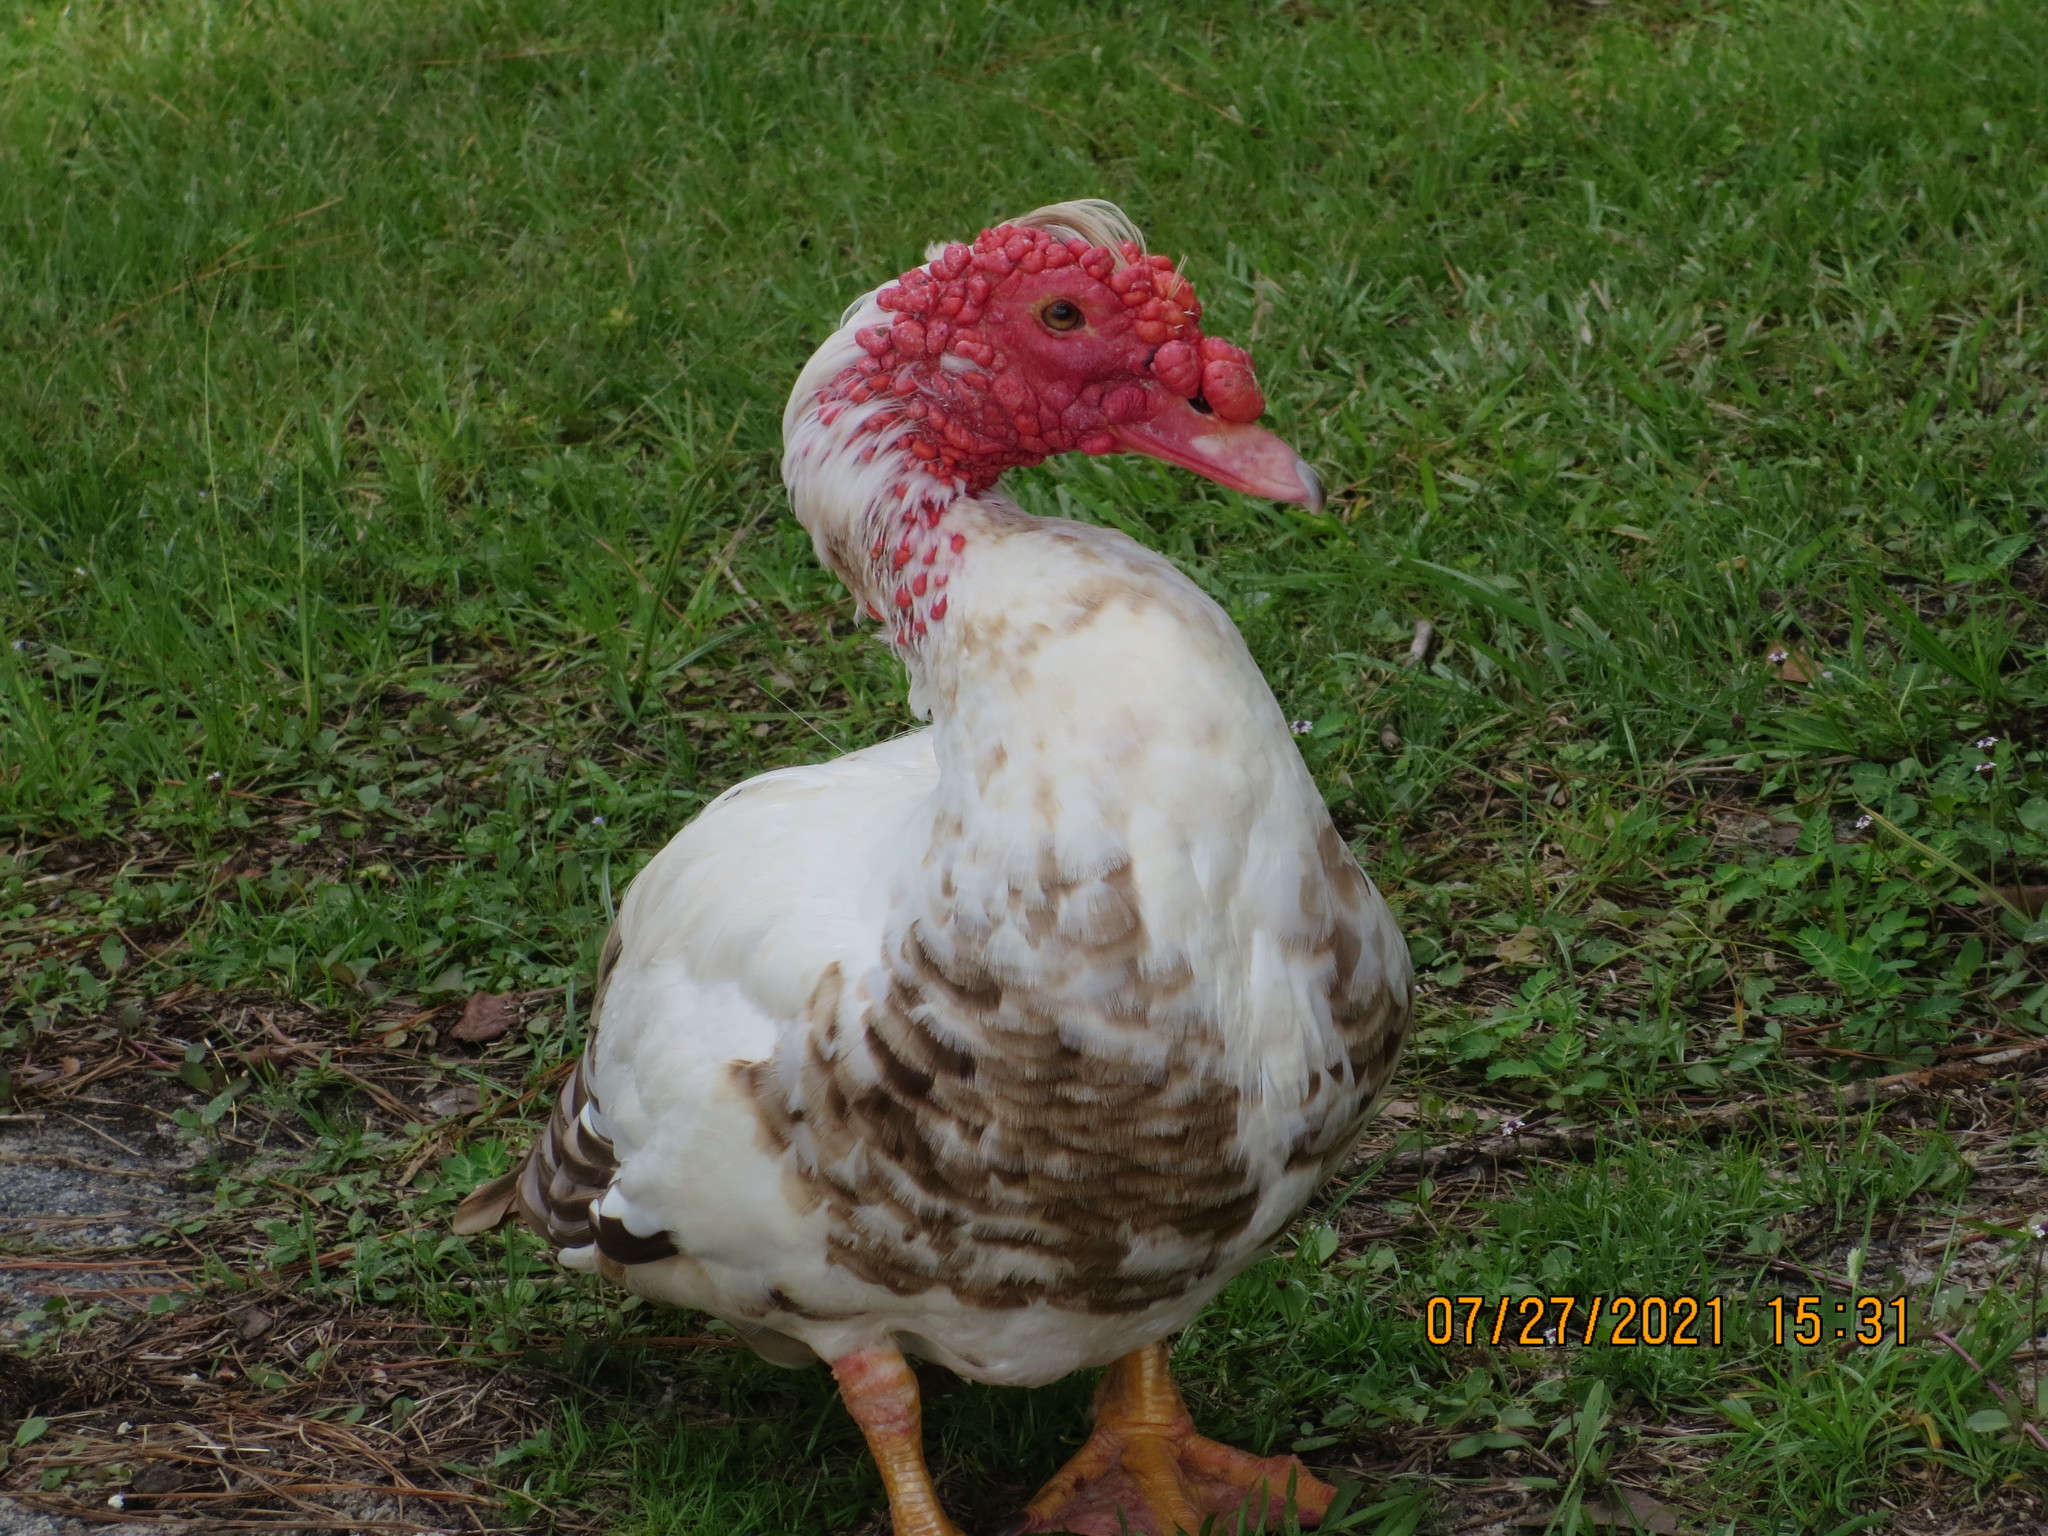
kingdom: Animalia
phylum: Chordata
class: Aves
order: Anseriformes
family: Anatidae
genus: Cairina
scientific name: Cairina moschata
